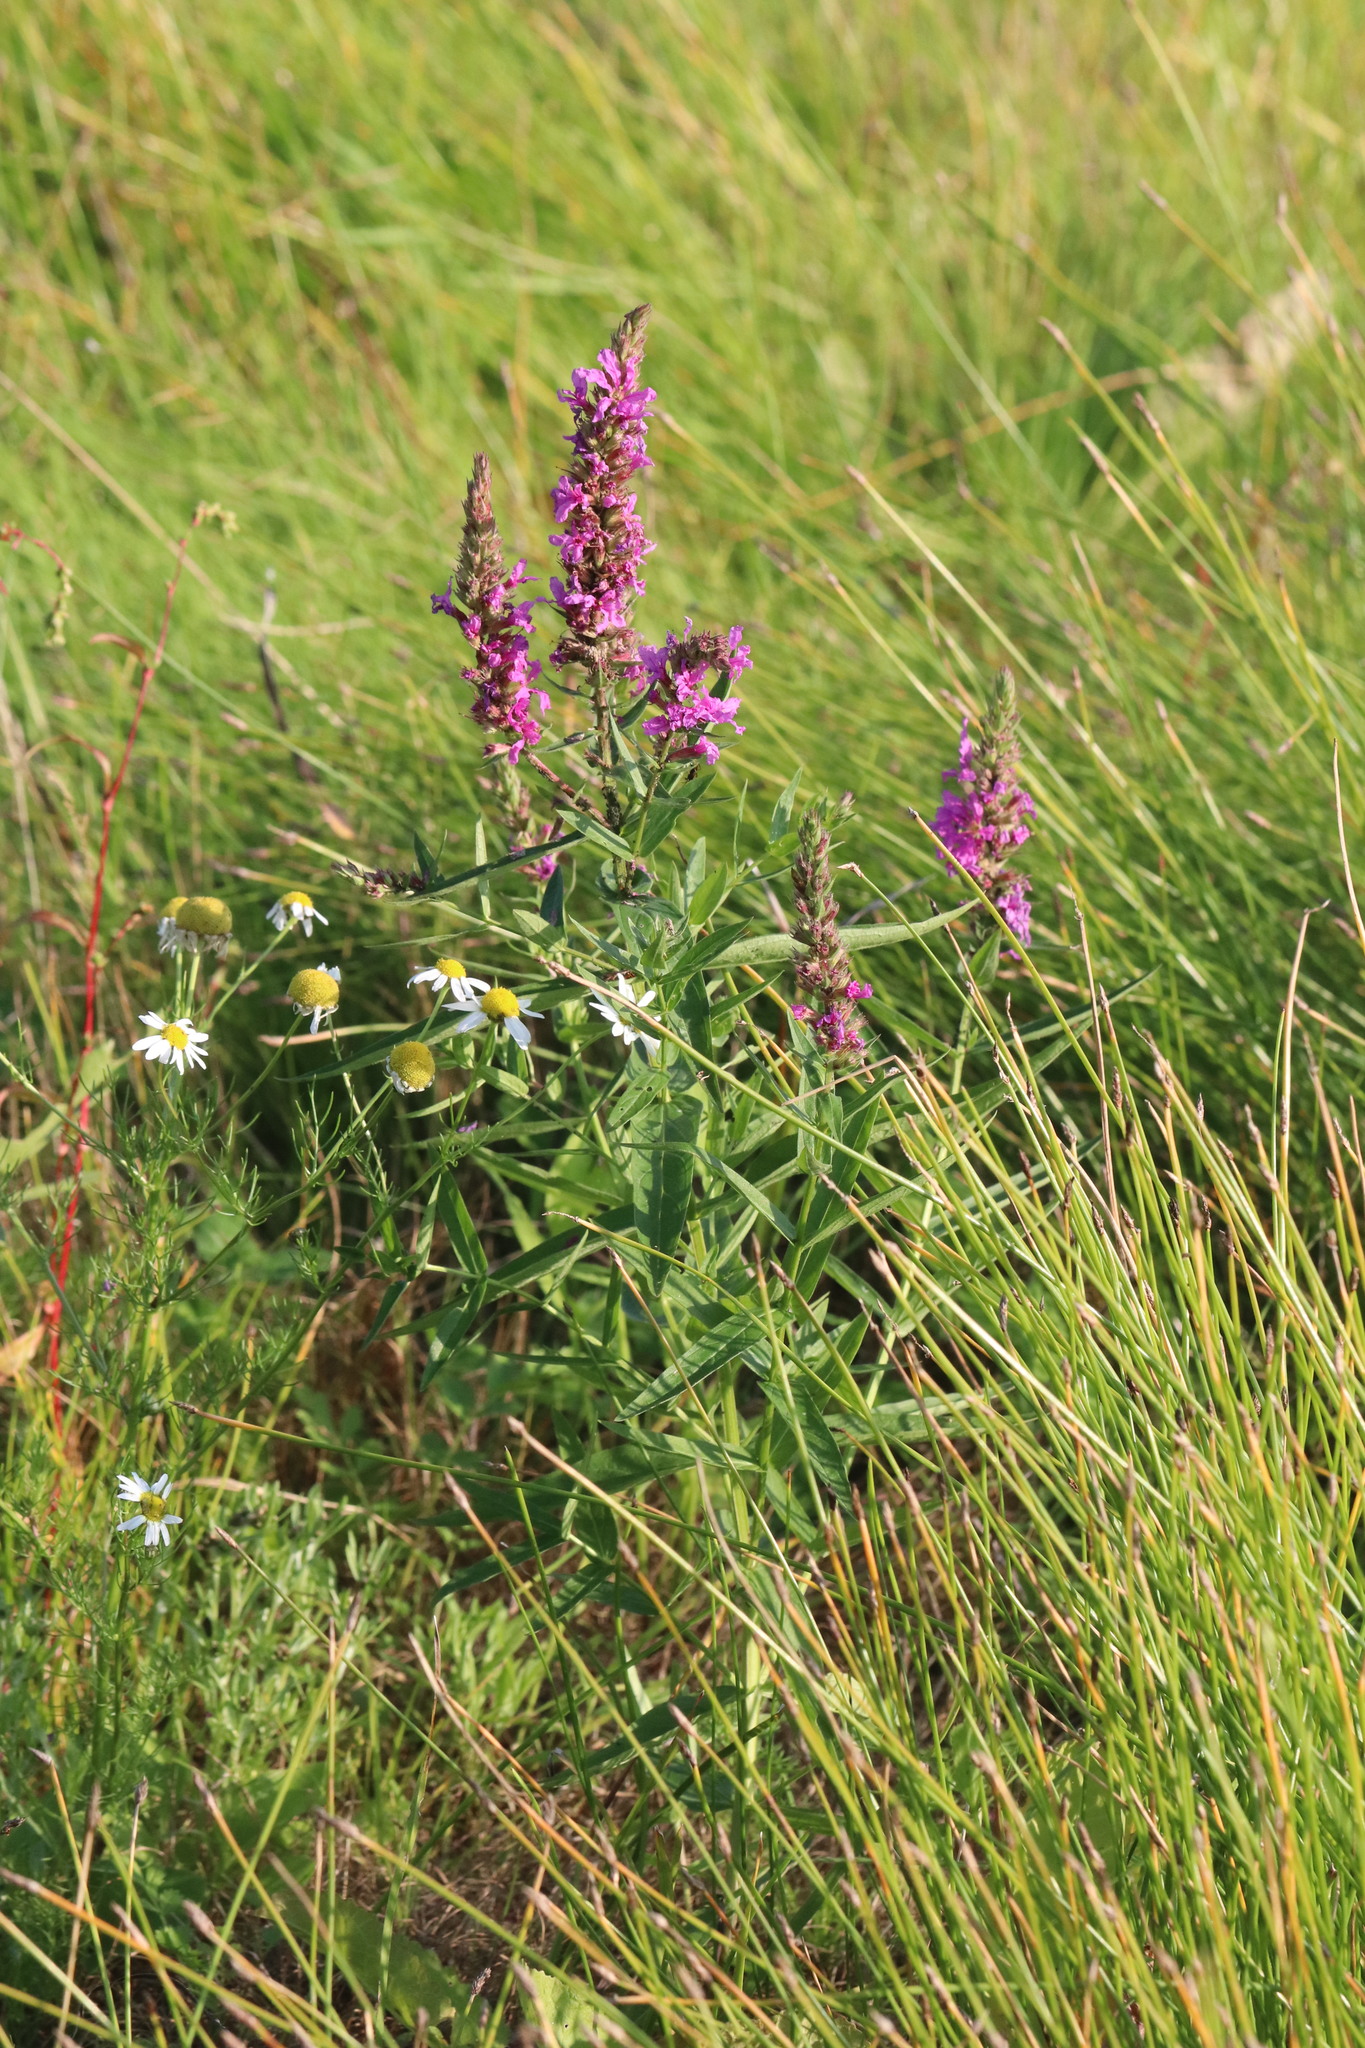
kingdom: Plantae
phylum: Tracheophyta
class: Magnoliopsida
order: Myrtales
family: Lythraceae
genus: Lythrum
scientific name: Lythrum salicaria
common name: Purple loosestrife
